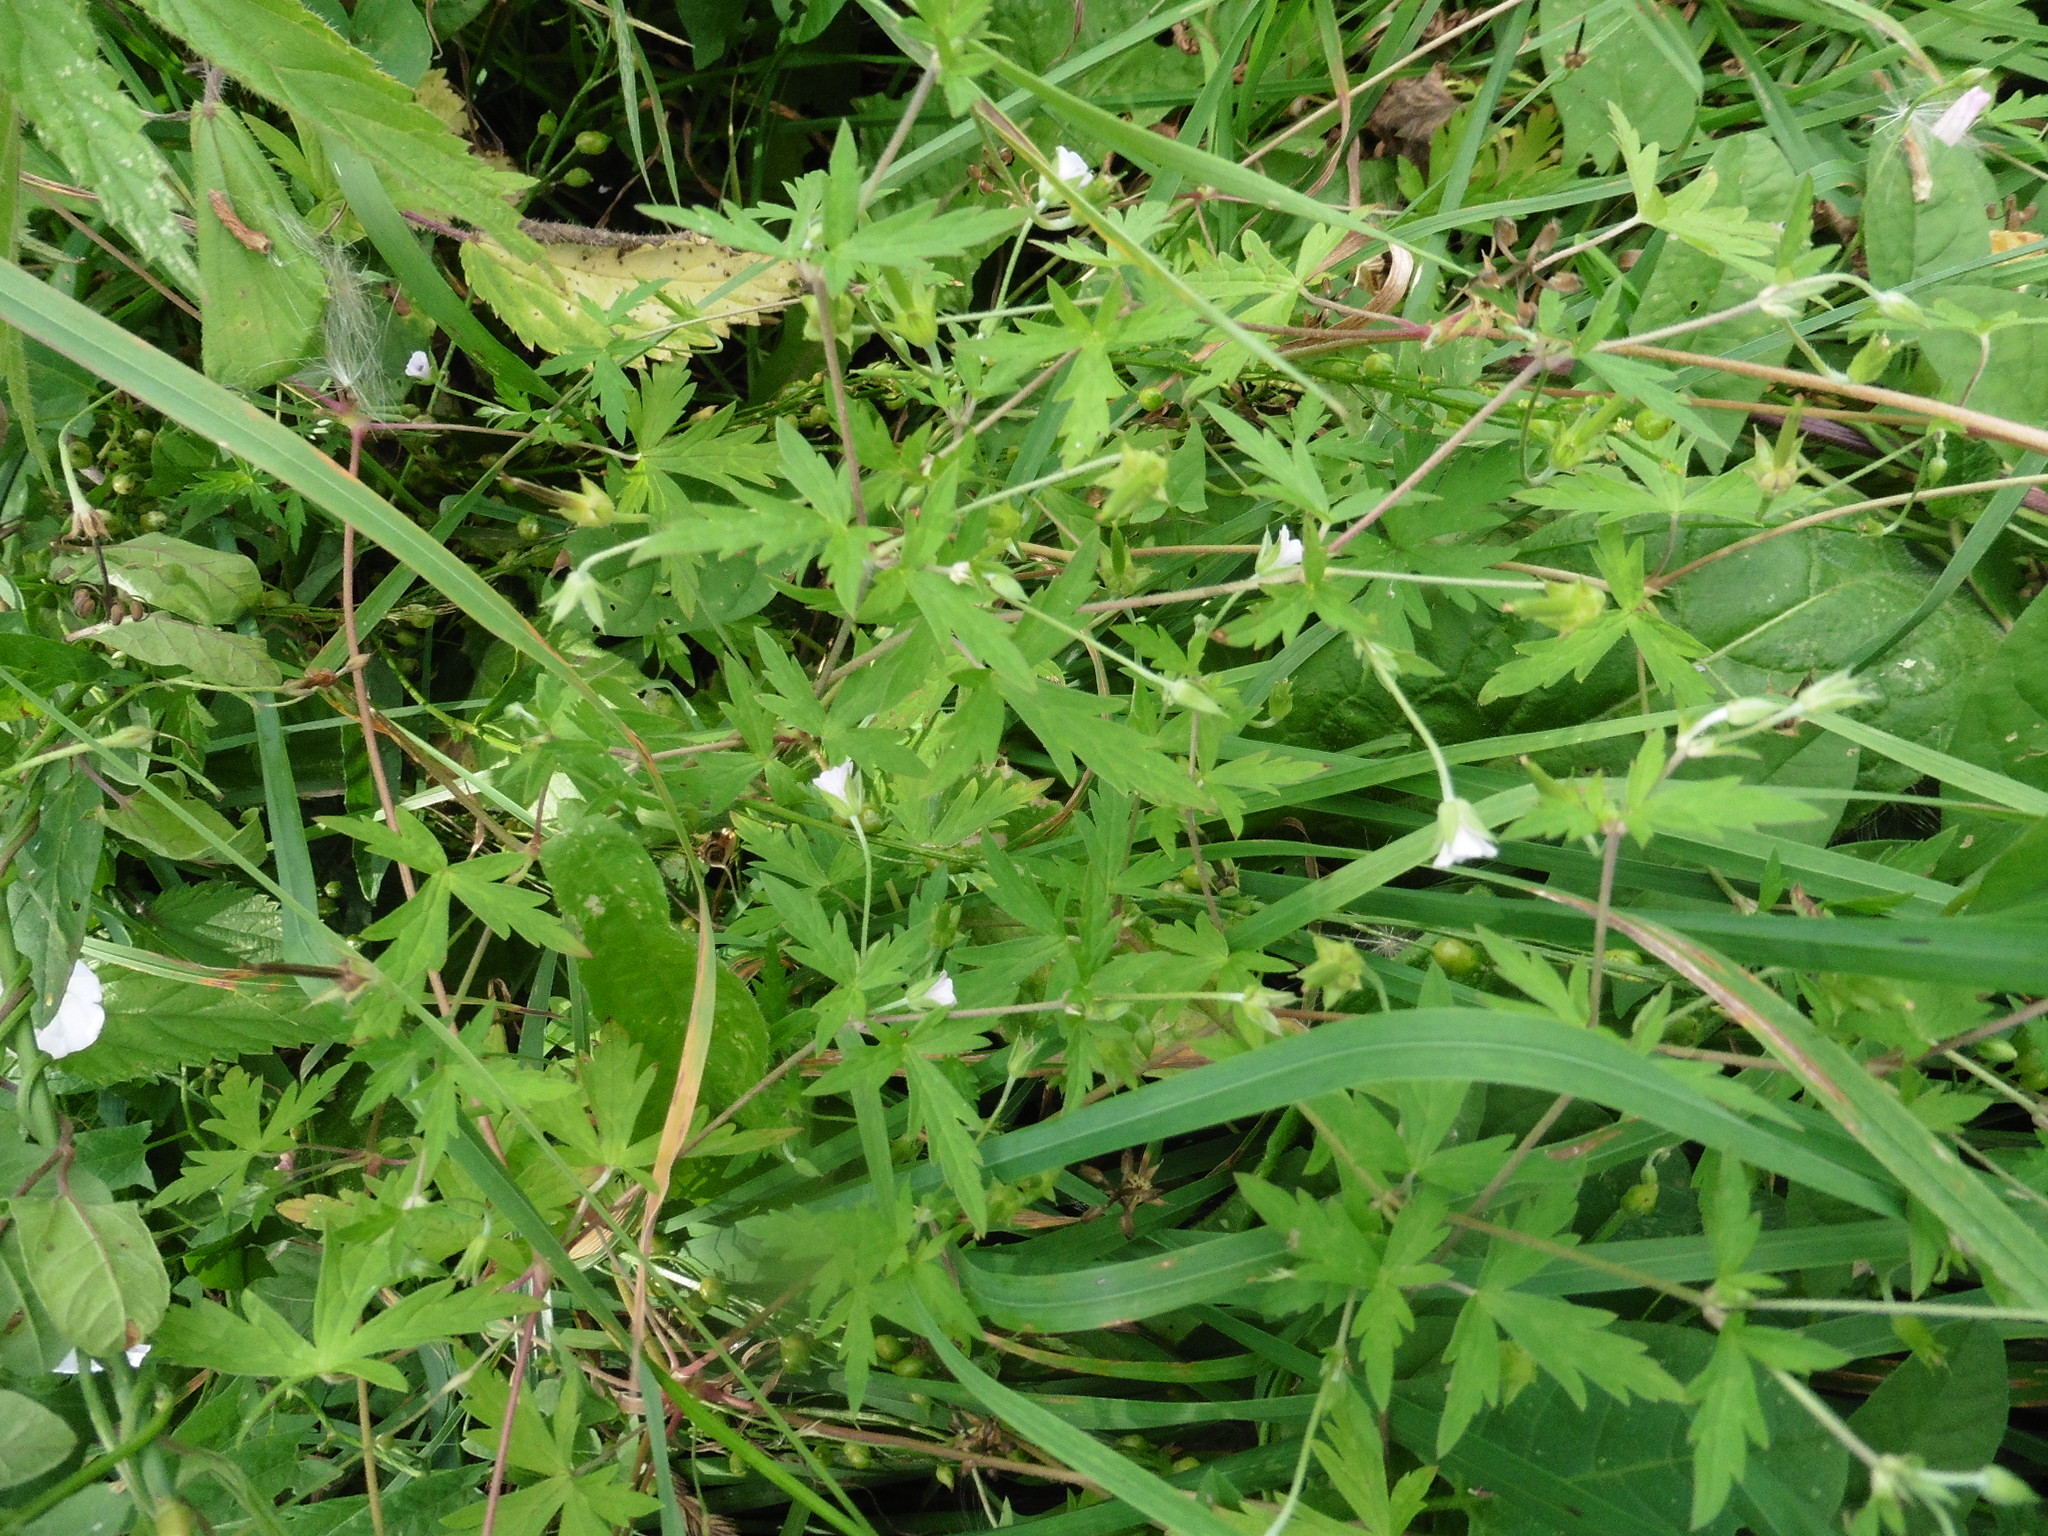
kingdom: Plantae
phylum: Tracheophyta
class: Magnoliopsida
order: Geraniales
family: Geraniaceae
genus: Geranium
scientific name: Geranium sibiricum
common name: Siberian crane's-bill
